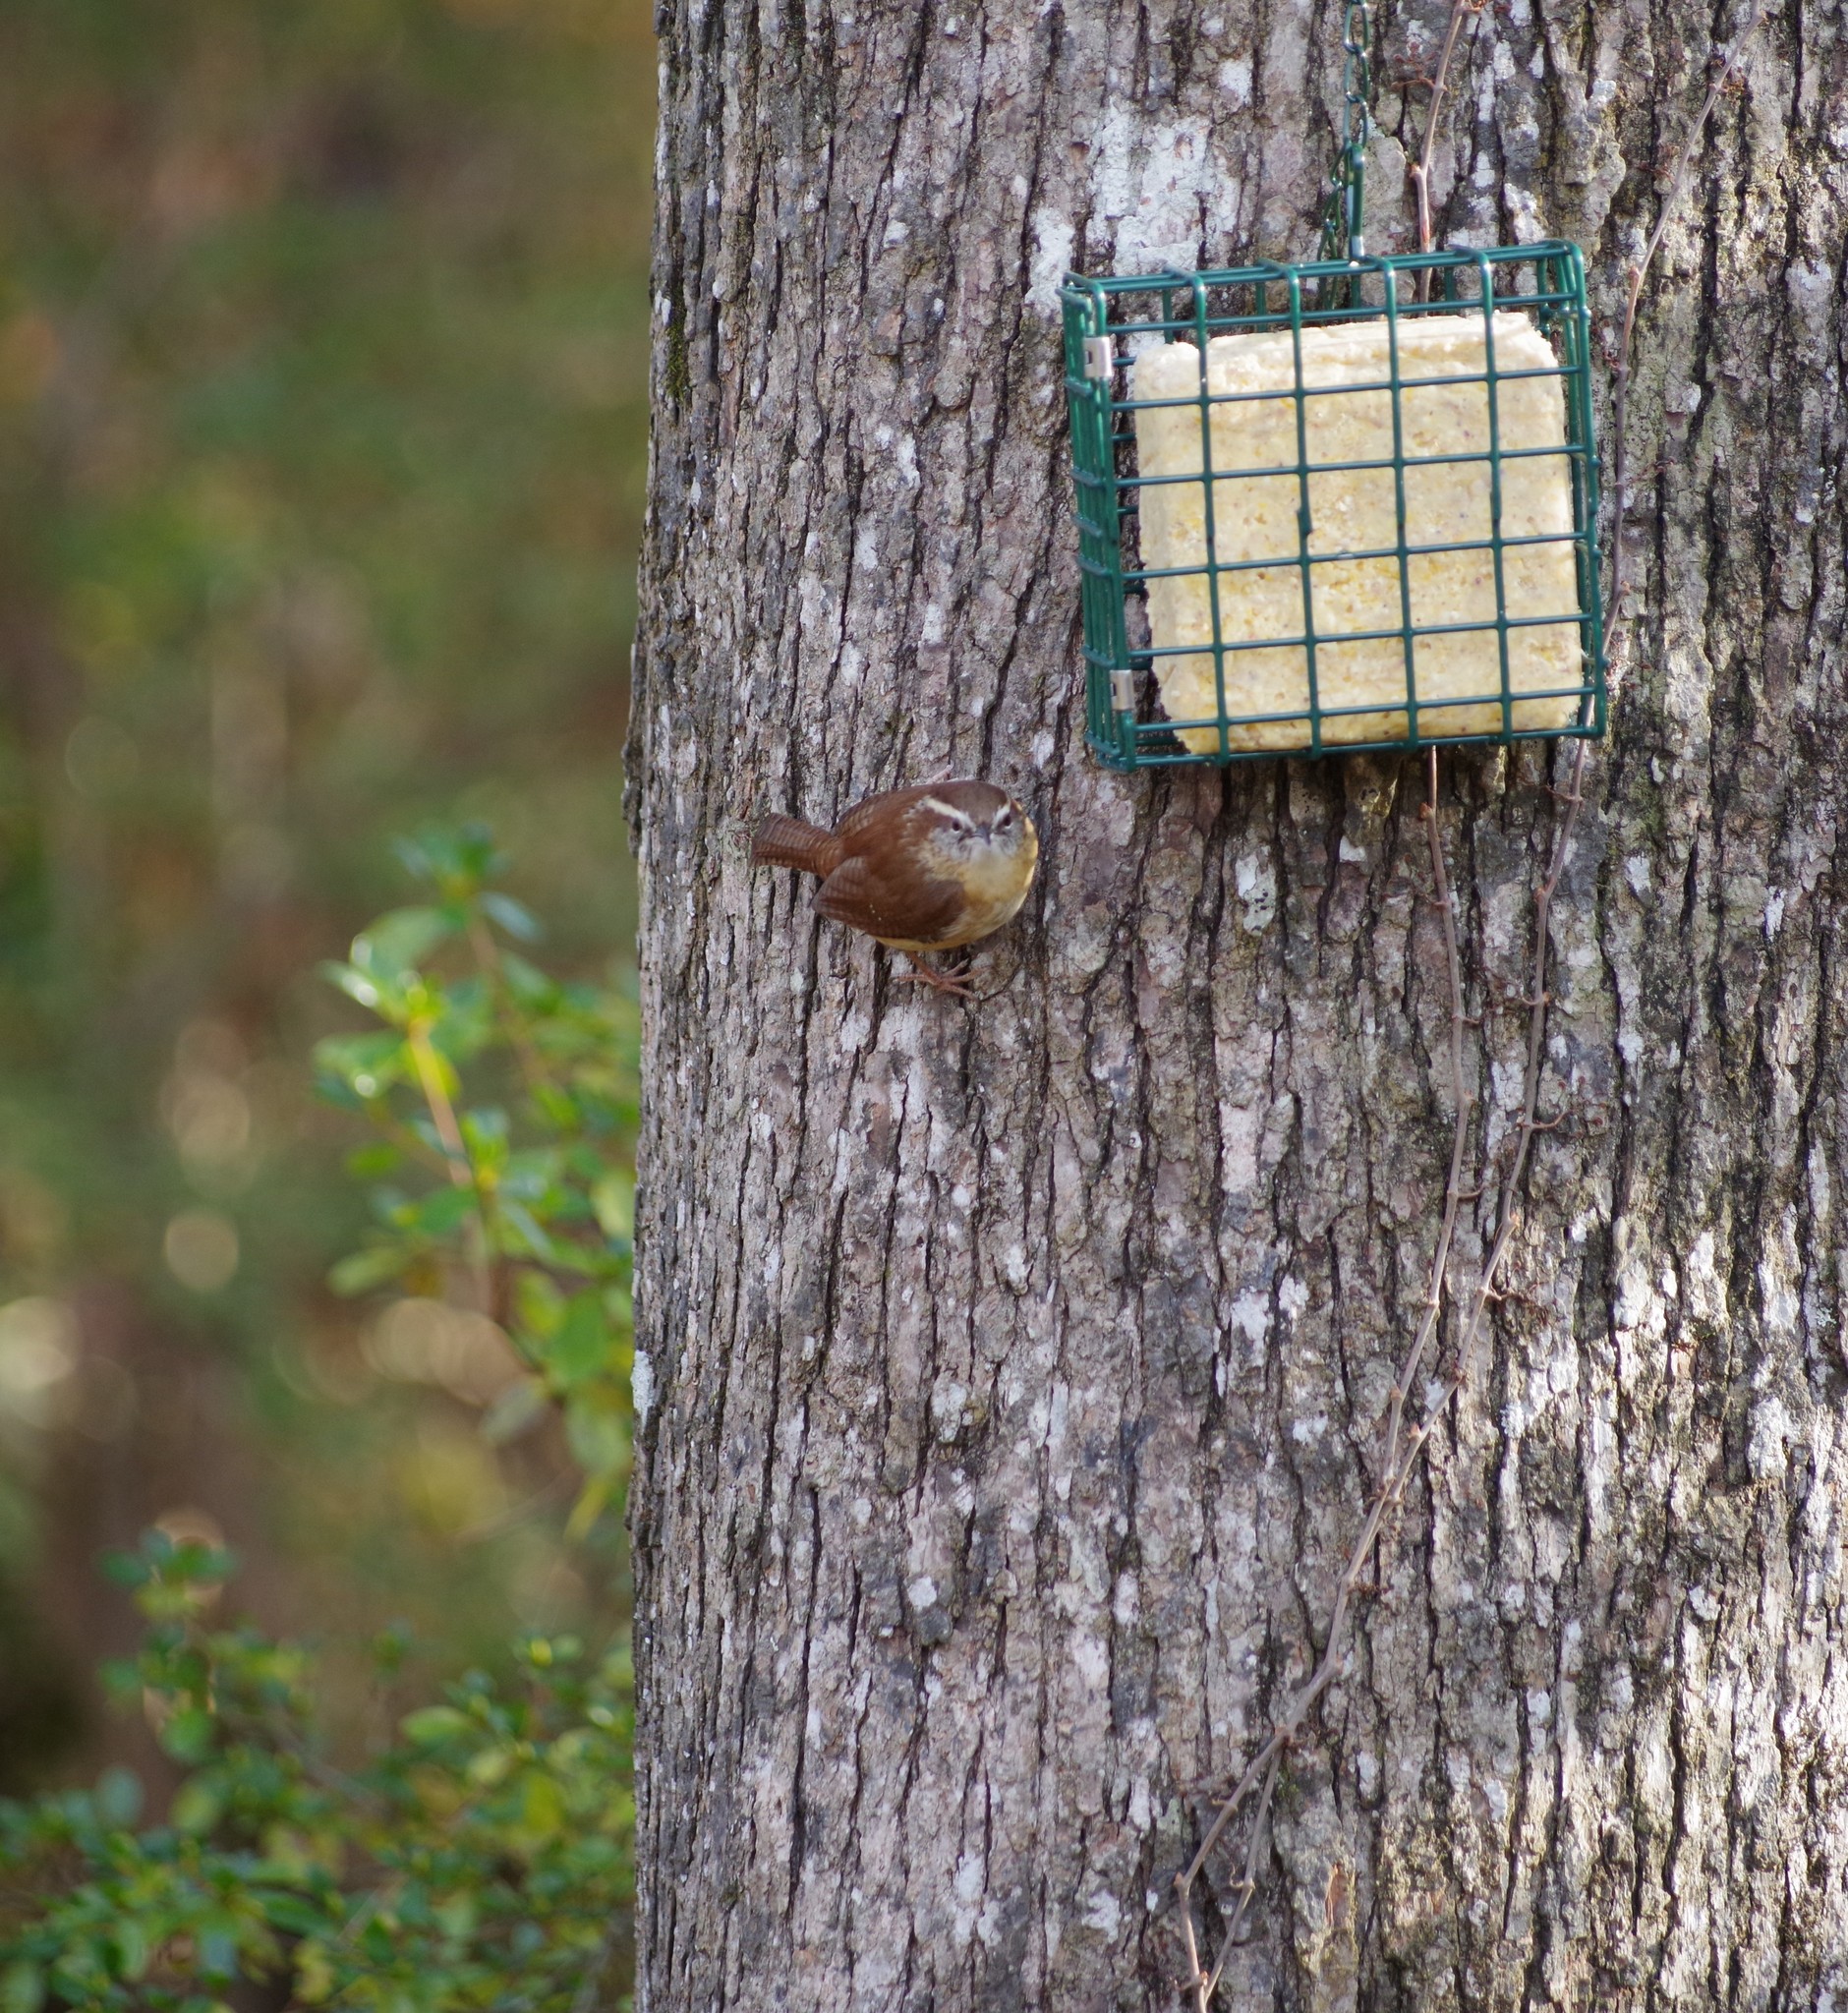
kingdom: Animalia
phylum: Chordata
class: Aves
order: Passeriformes
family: Troglodytidae
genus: Thryothorus
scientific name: Thryothorus ludovicianus
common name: Carolina wren
